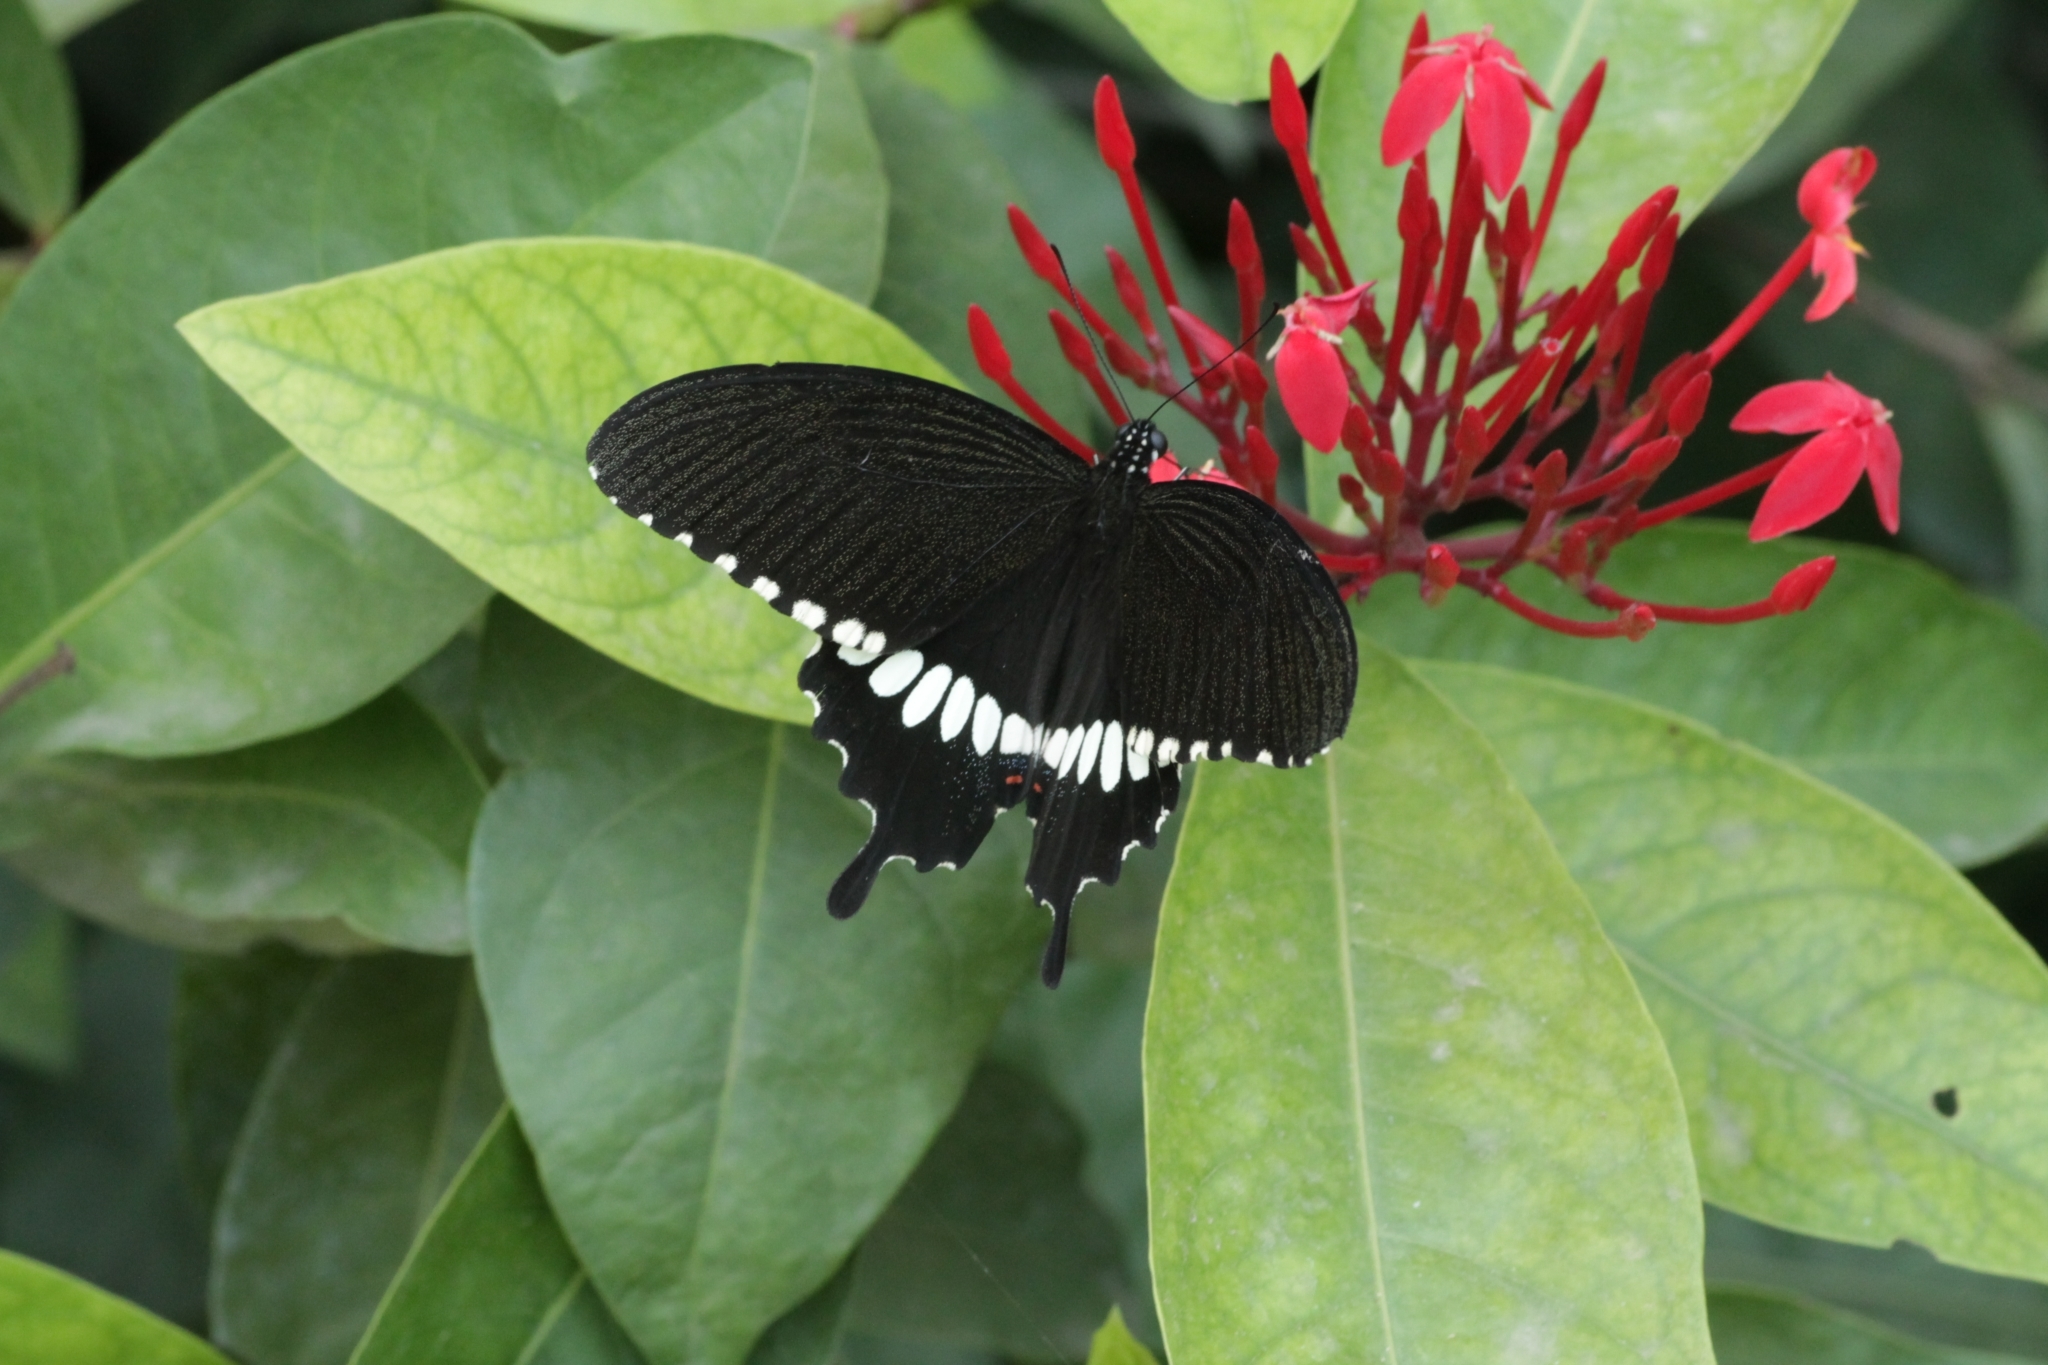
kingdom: Animalia
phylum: Arthropoda
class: Insecta
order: Lepidoptera
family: Papilionidae
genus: Papilio
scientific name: Papilio polytes
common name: Common mormon
